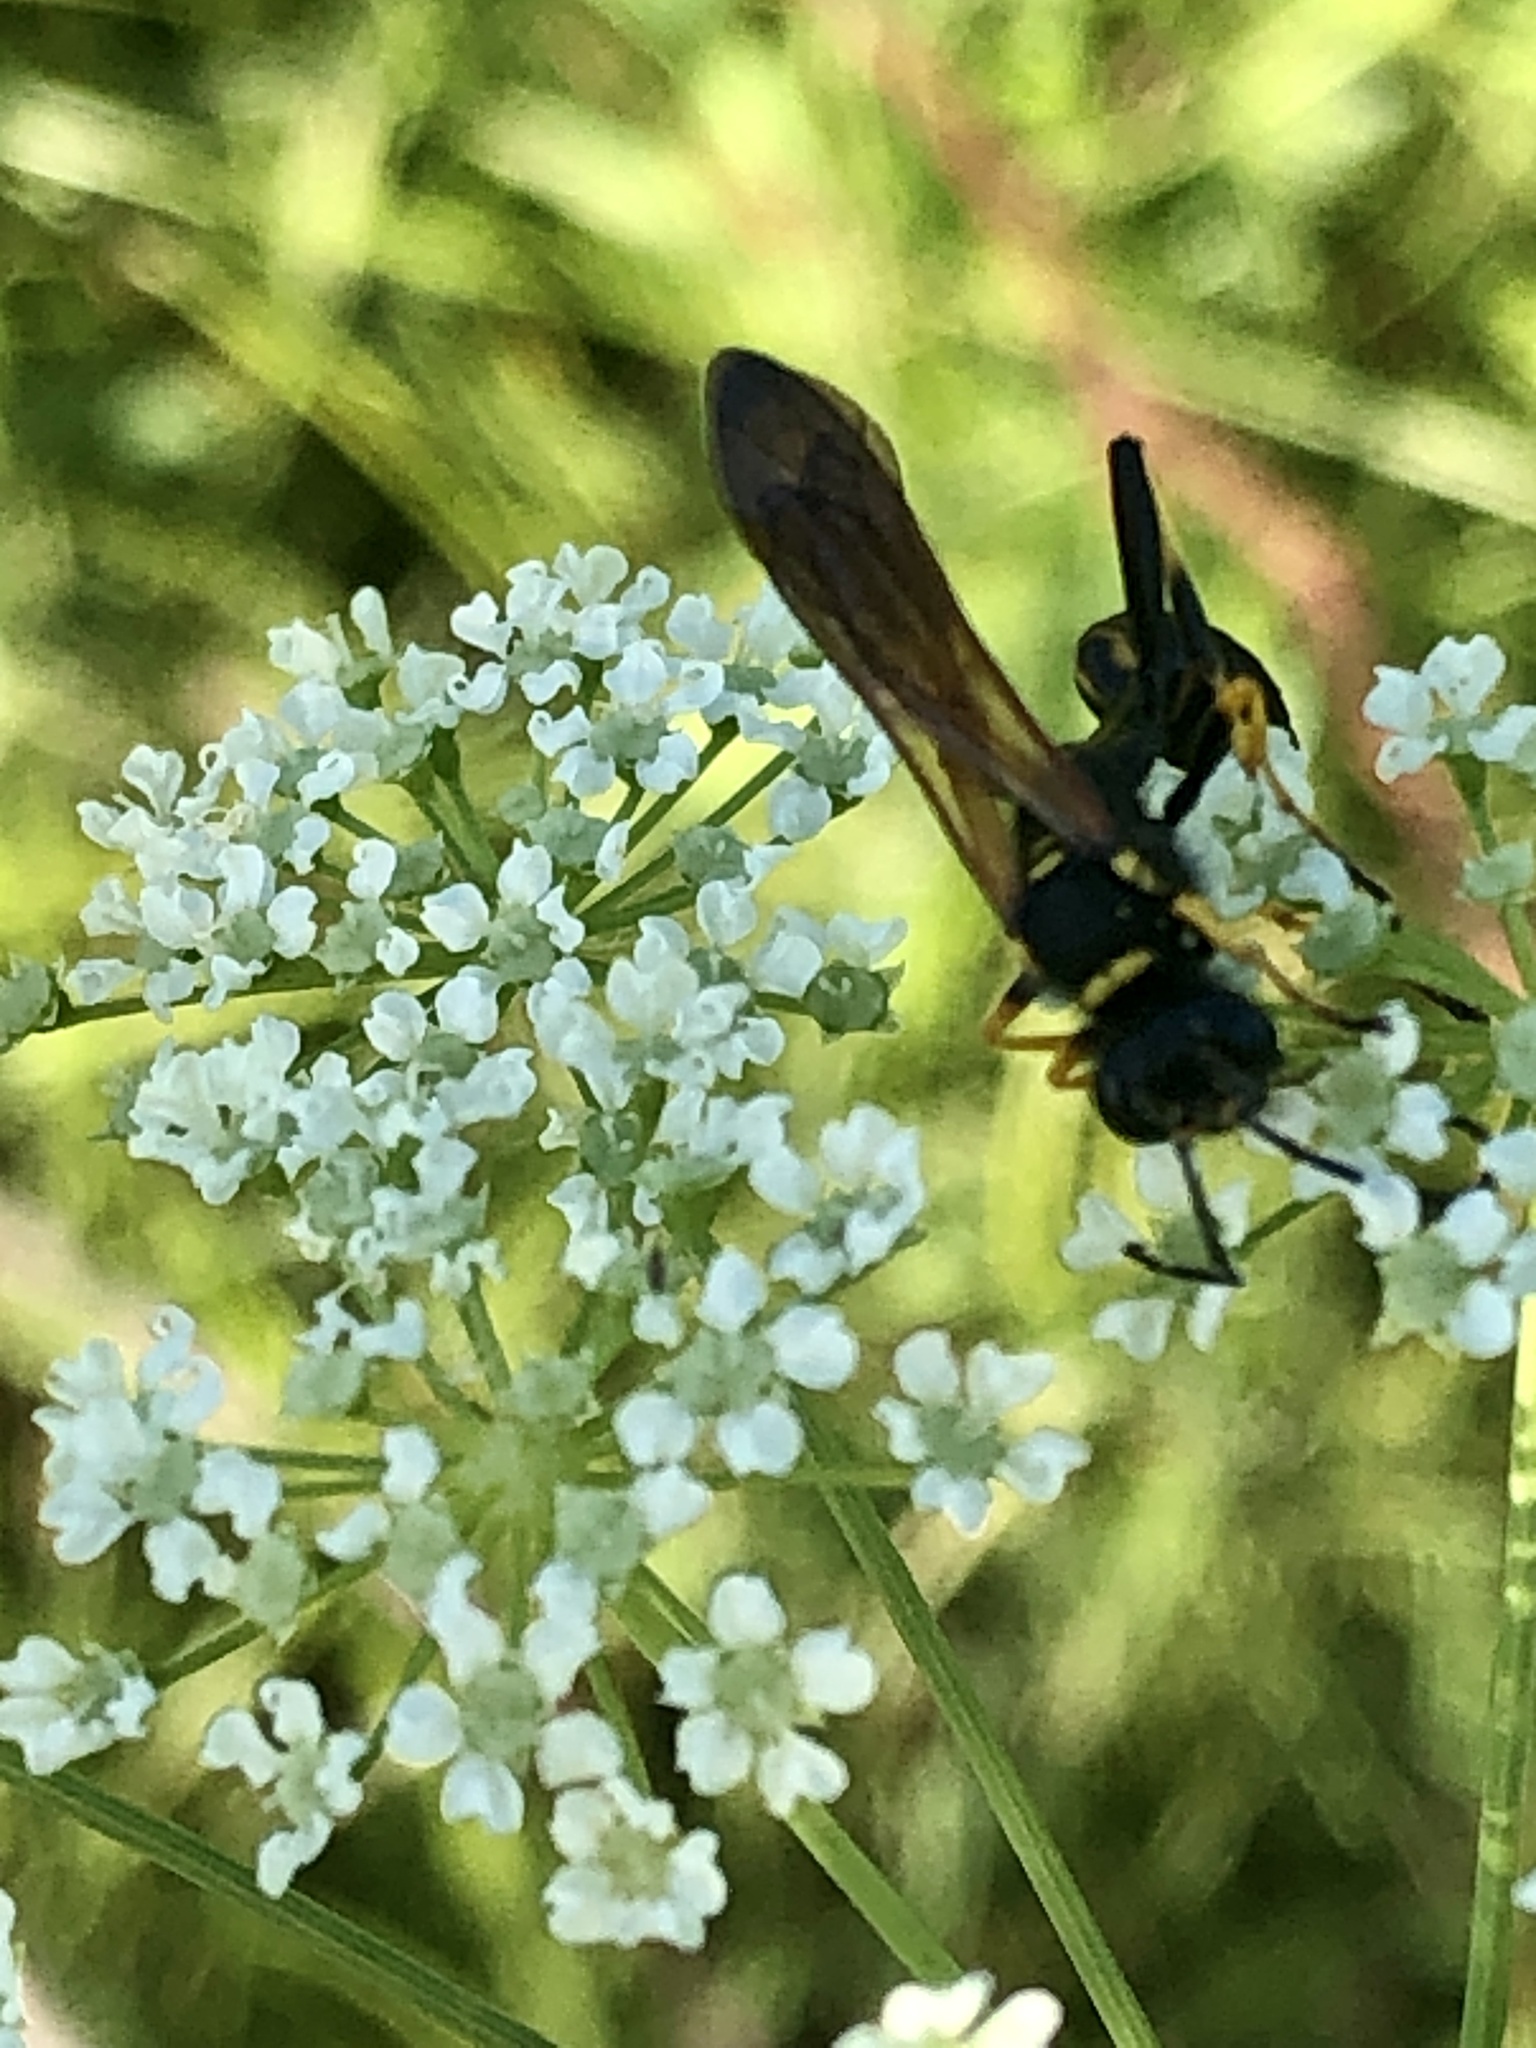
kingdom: Animalia
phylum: Arthropoda
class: Insecta
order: Hymenoptera
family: Sphecidae
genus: Sceliphron
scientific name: Sceliphron caementarium
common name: Mud dauber
